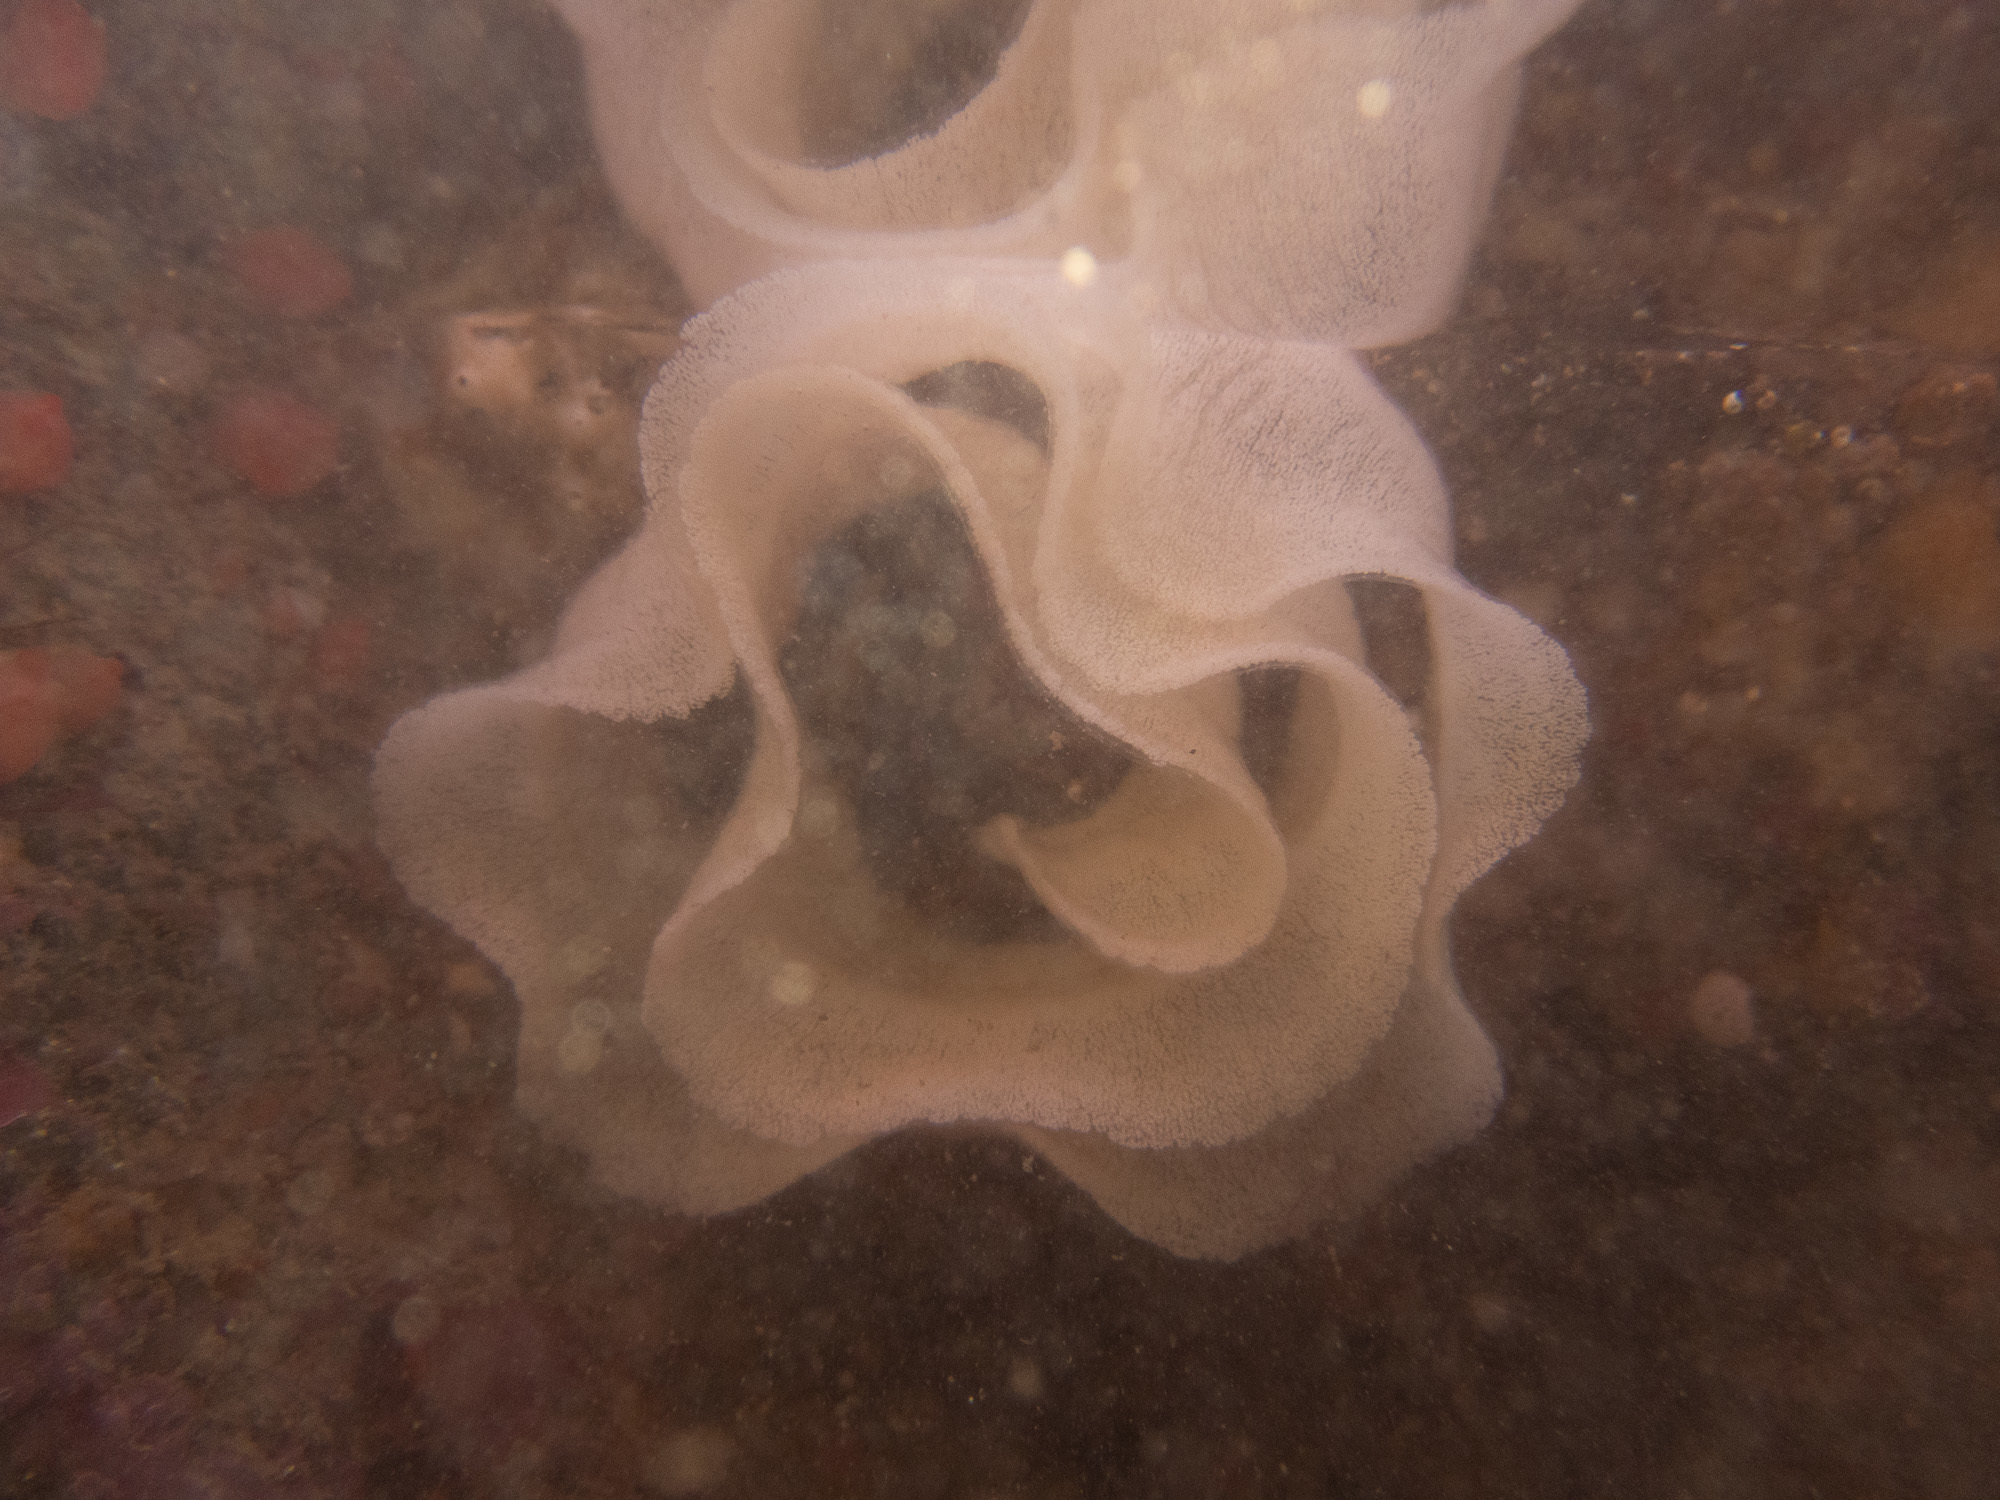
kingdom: Animalia
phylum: Mollusca
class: Gastropoda
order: Nudibranchia
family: Discodorididae
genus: Geitodoris
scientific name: Geitodoris planata
